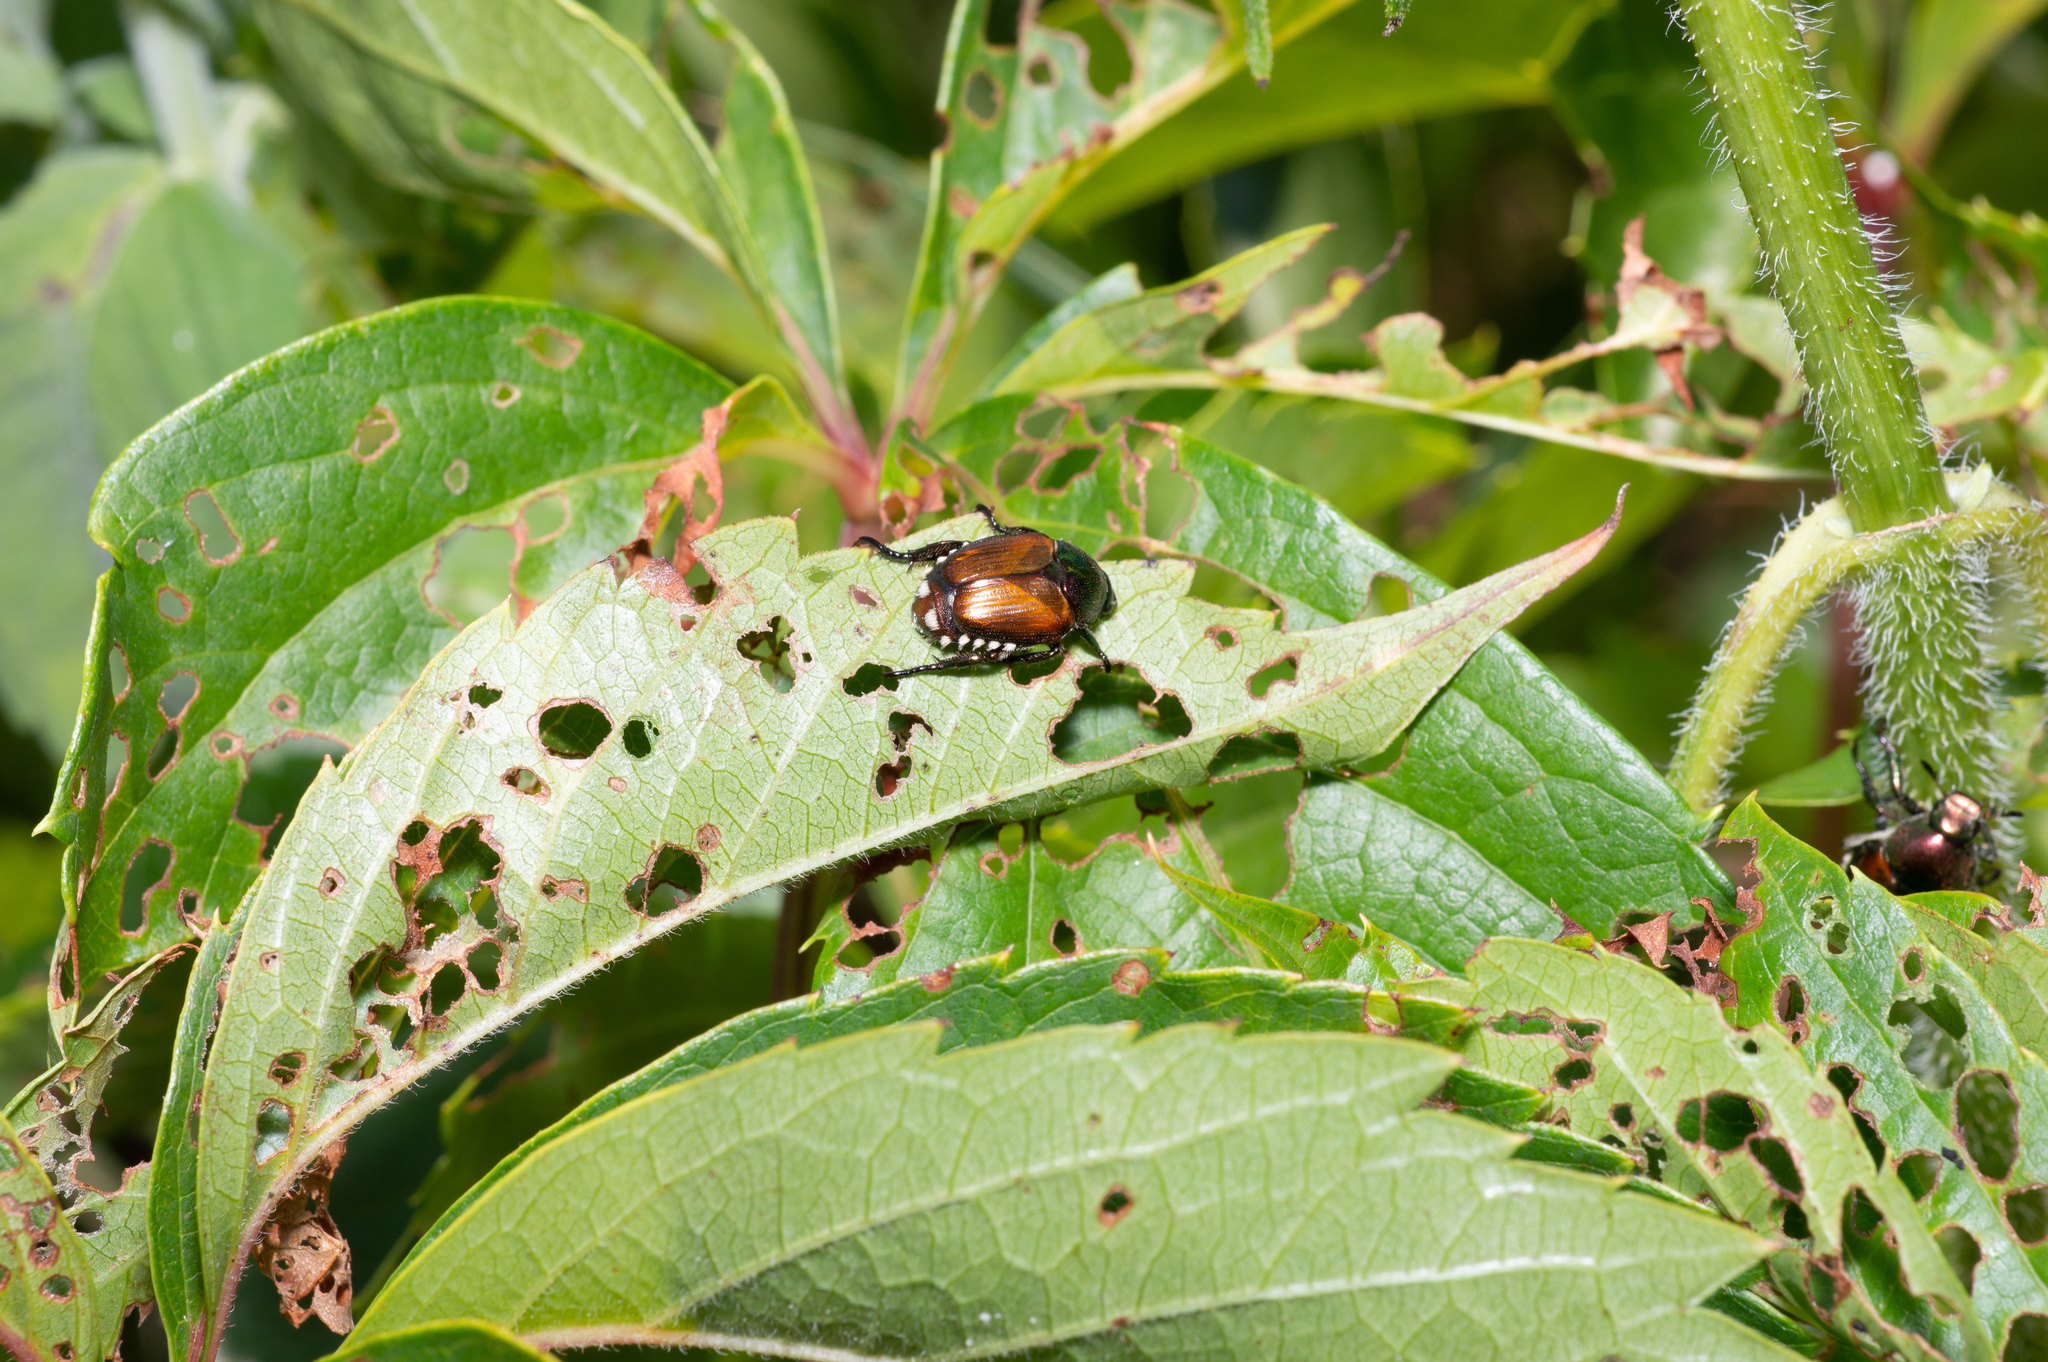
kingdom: Animalia
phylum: Arthropoda
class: Insecta
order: Coleoptera
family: Scarabaeidae
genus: Popillia
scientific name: Popillia japonica
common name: Japanese beetle
